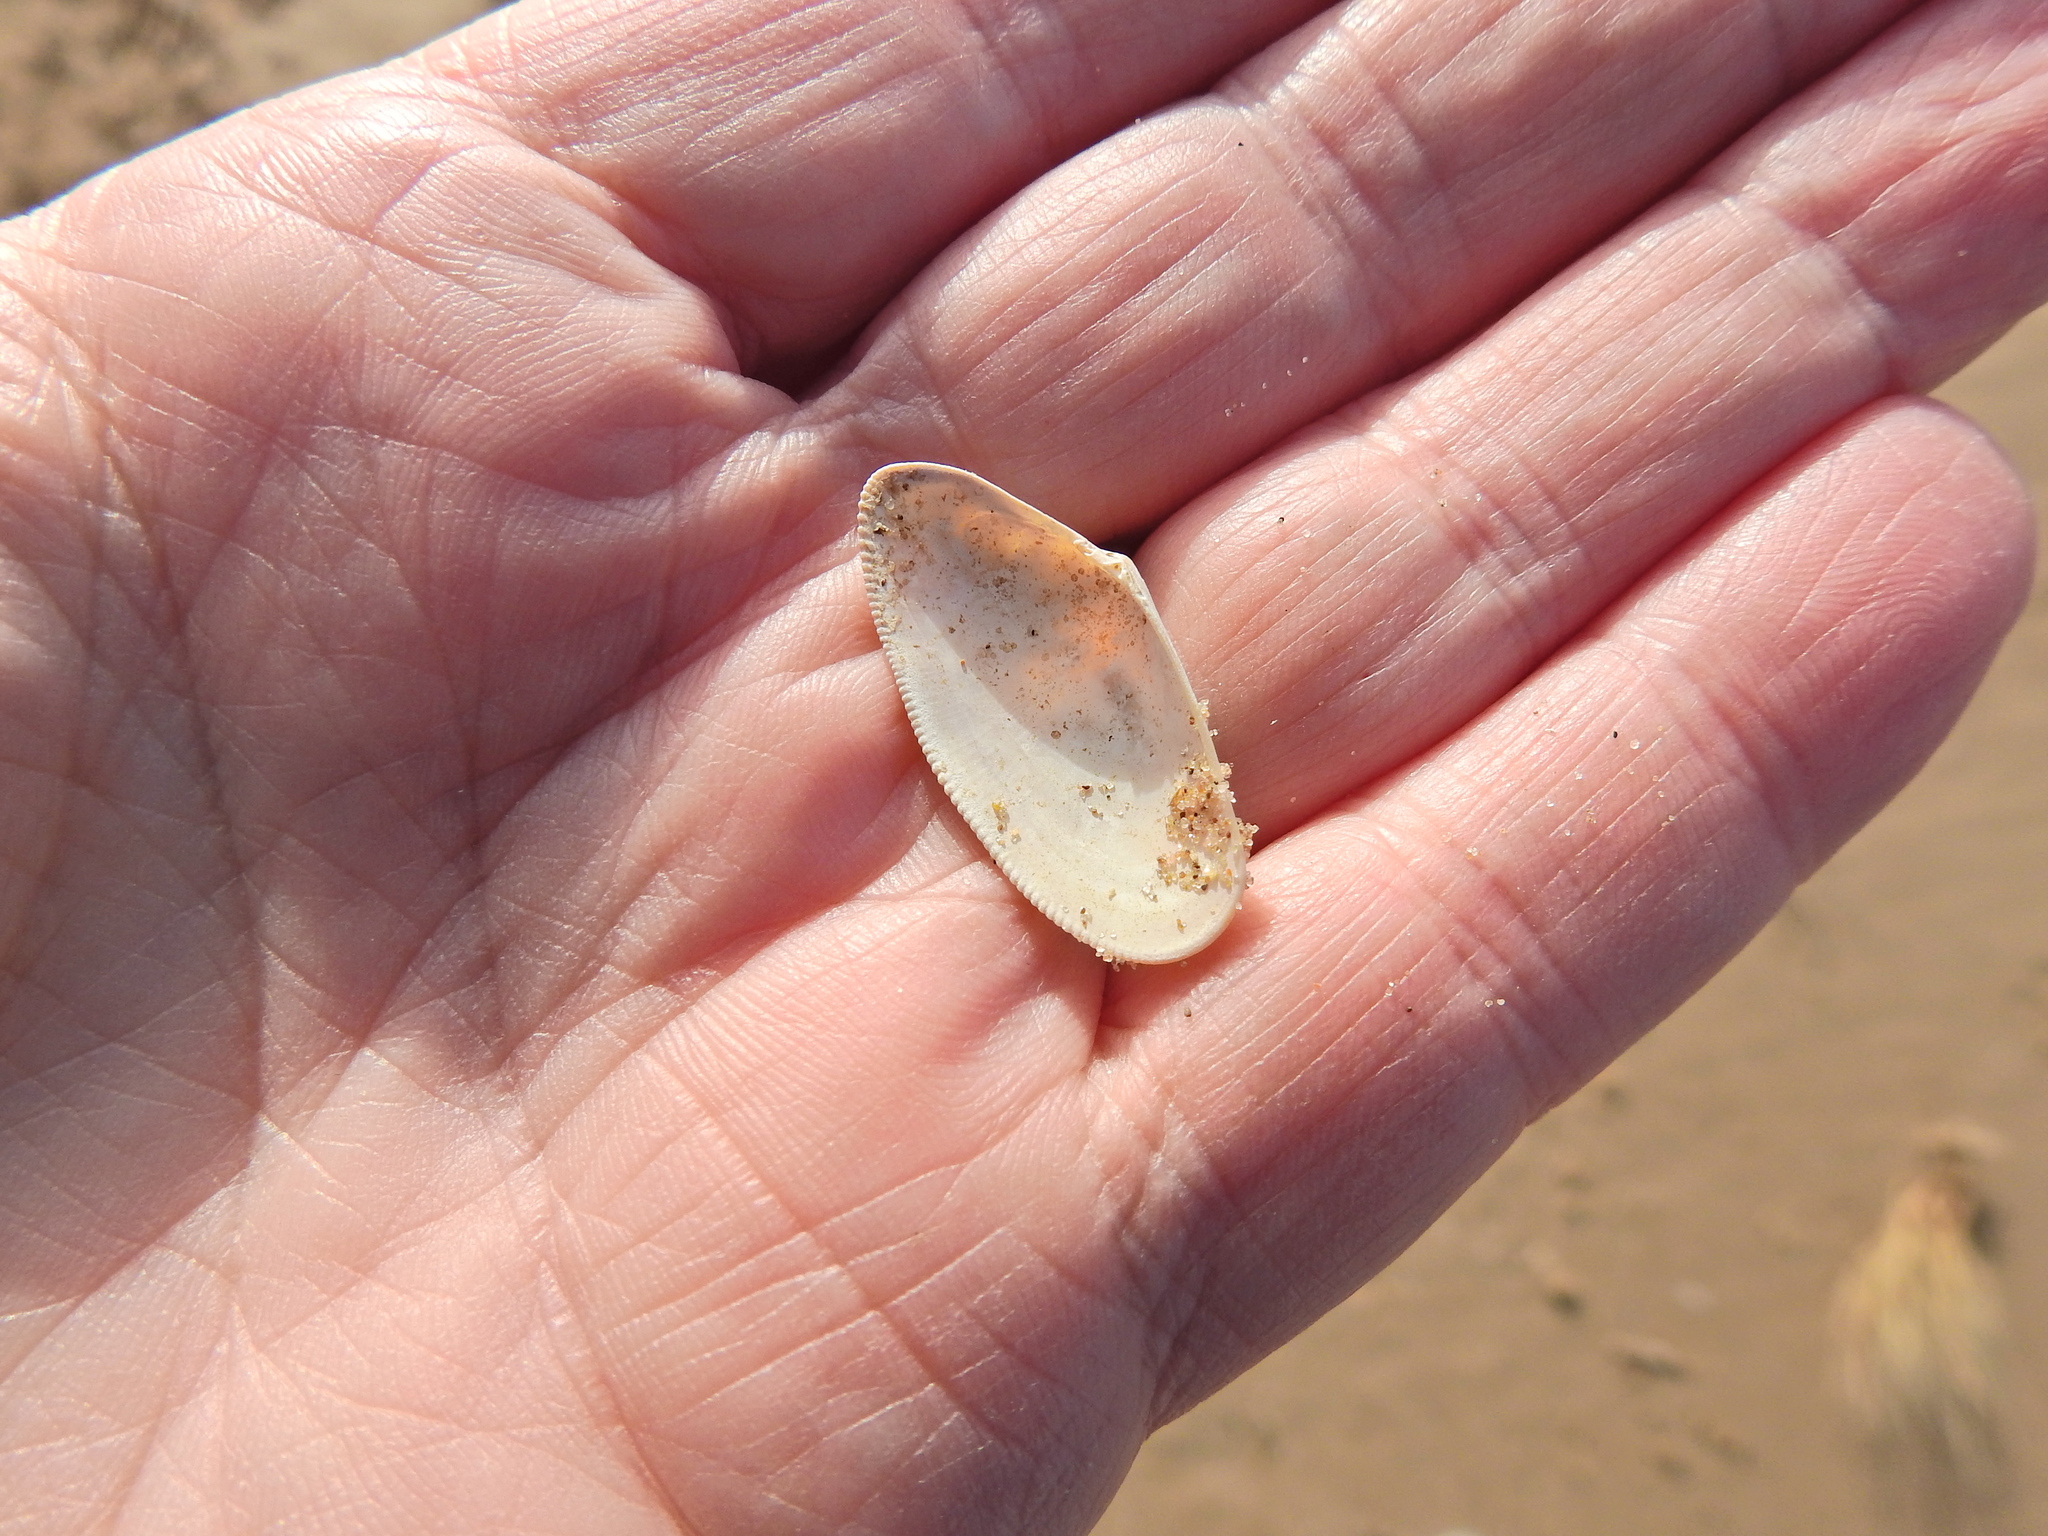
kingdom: Animalia
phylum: Mollusca
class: Bivalvia
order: Cardiida
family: Donacidae
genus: Donax
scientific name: Donax vittatus
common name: Banded wedge-shell
